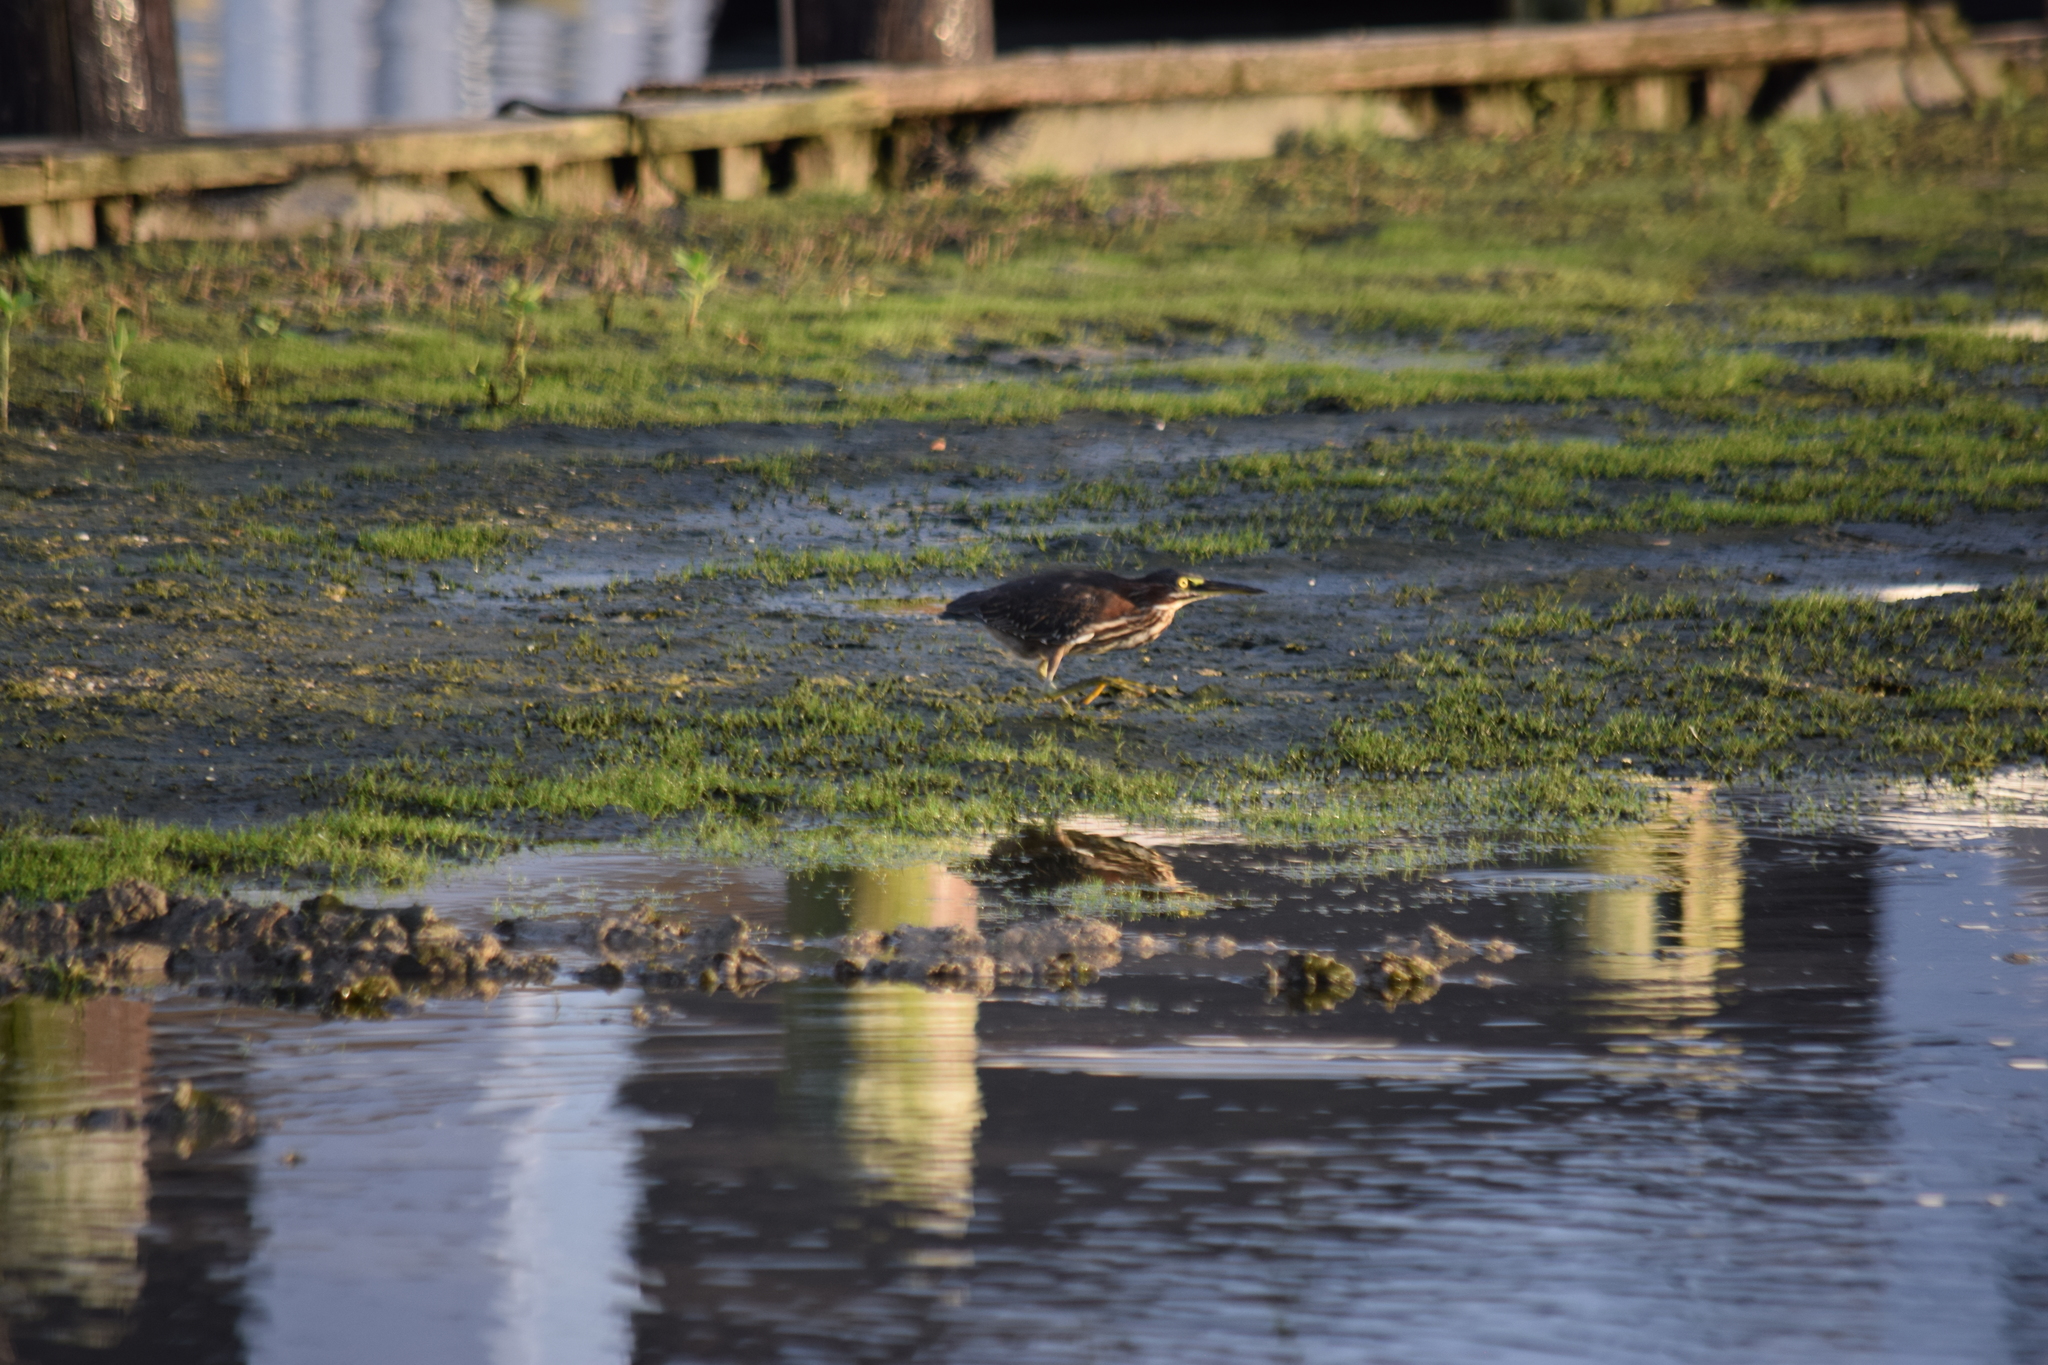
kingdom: Animalia
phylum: Chordata
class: Aves
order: Pelecaniformes
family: Ardeidae
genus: Butorides
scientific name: Butorides virescens
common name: Green heron
